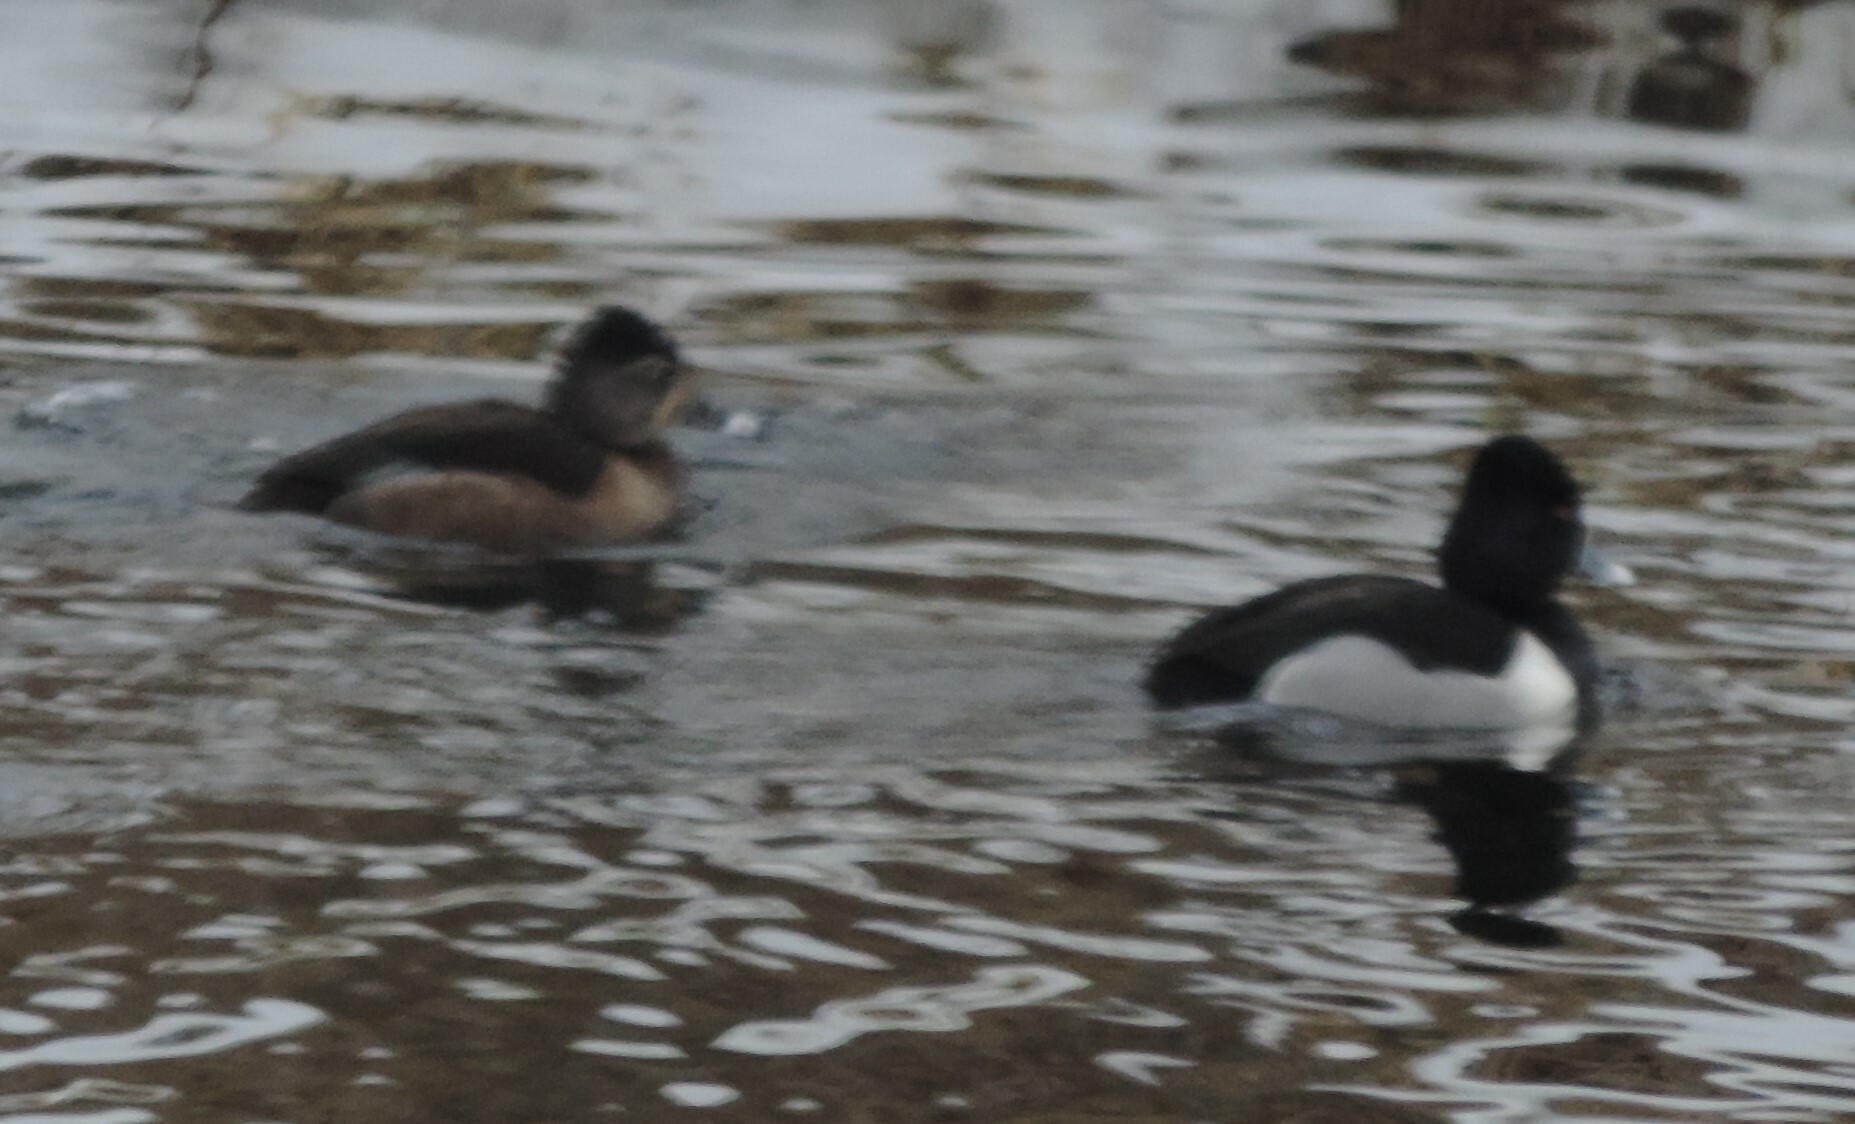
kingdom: Animalia
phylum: Chordata
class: Aves
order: Anseriformes
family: Anatidae
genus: Aythya
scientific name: Aythya collaris
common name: Ring-necked duck
